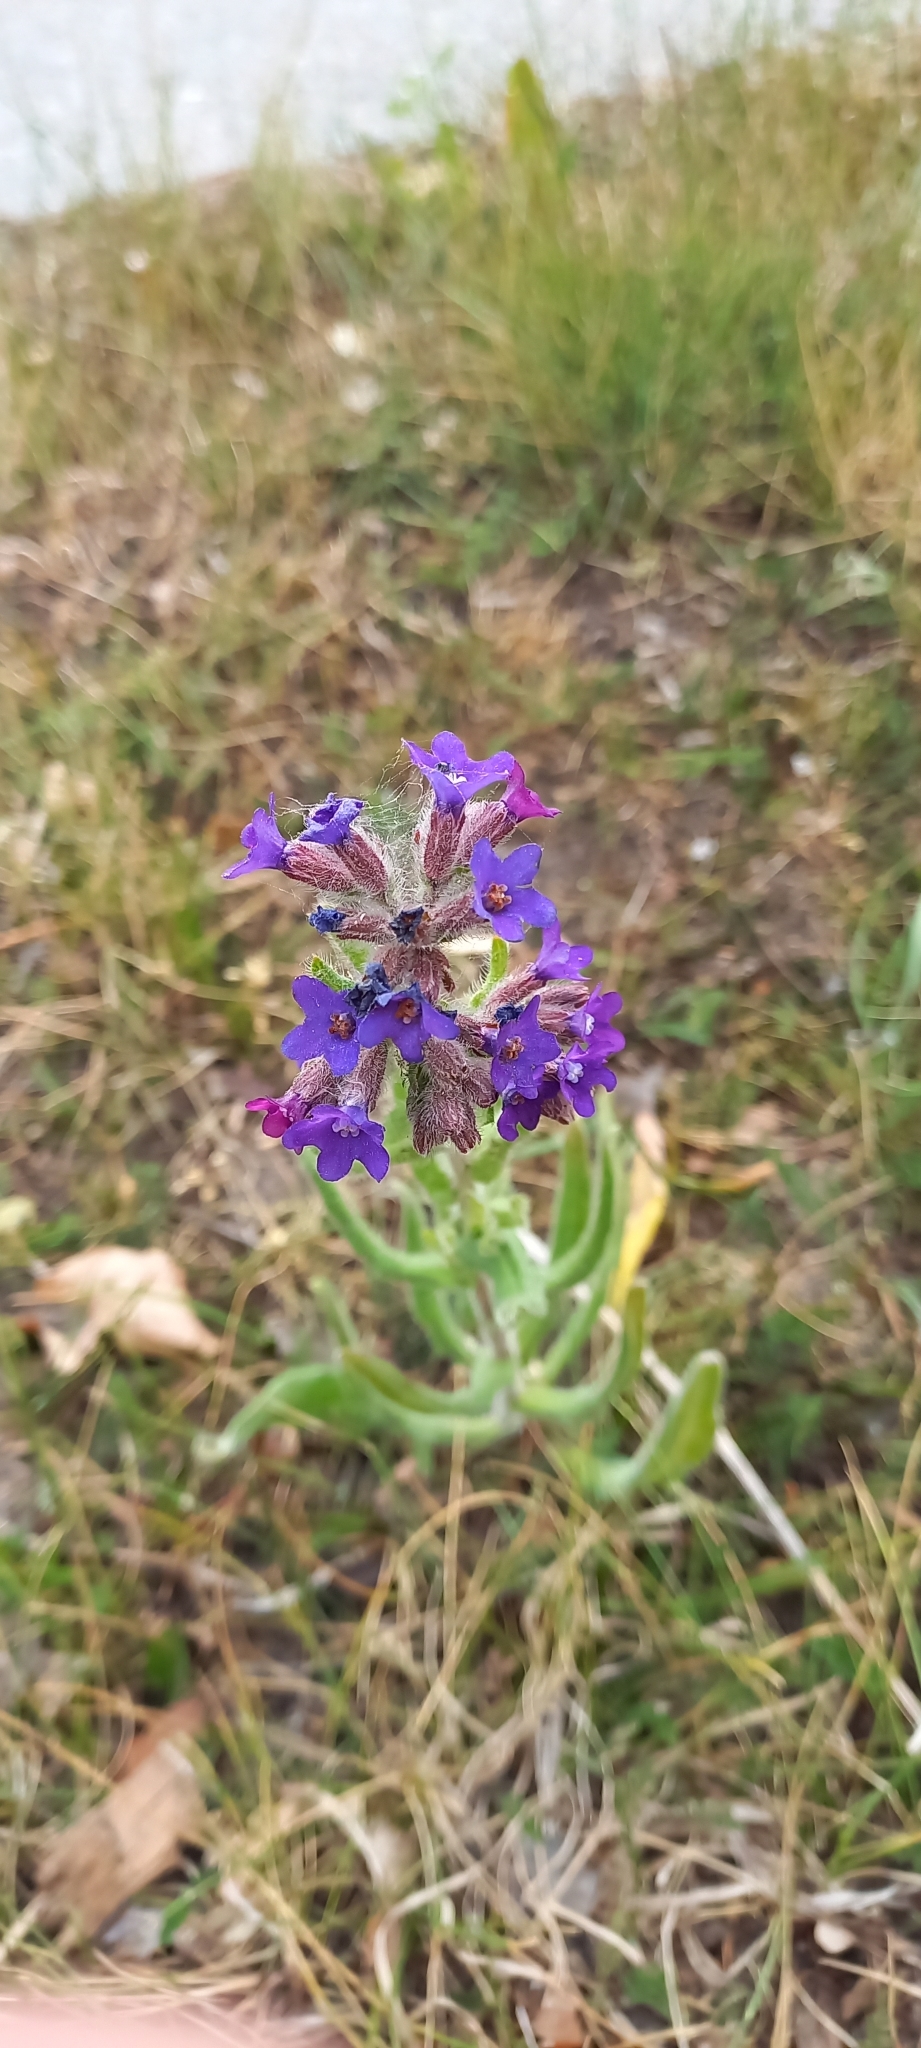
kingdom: Plantae
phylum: Tracheophyta
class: Magnoliopsida
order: Boraginales
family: Boraginaceae
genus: Anchusa
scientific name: Anchusa officinalis
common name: Alkanet
